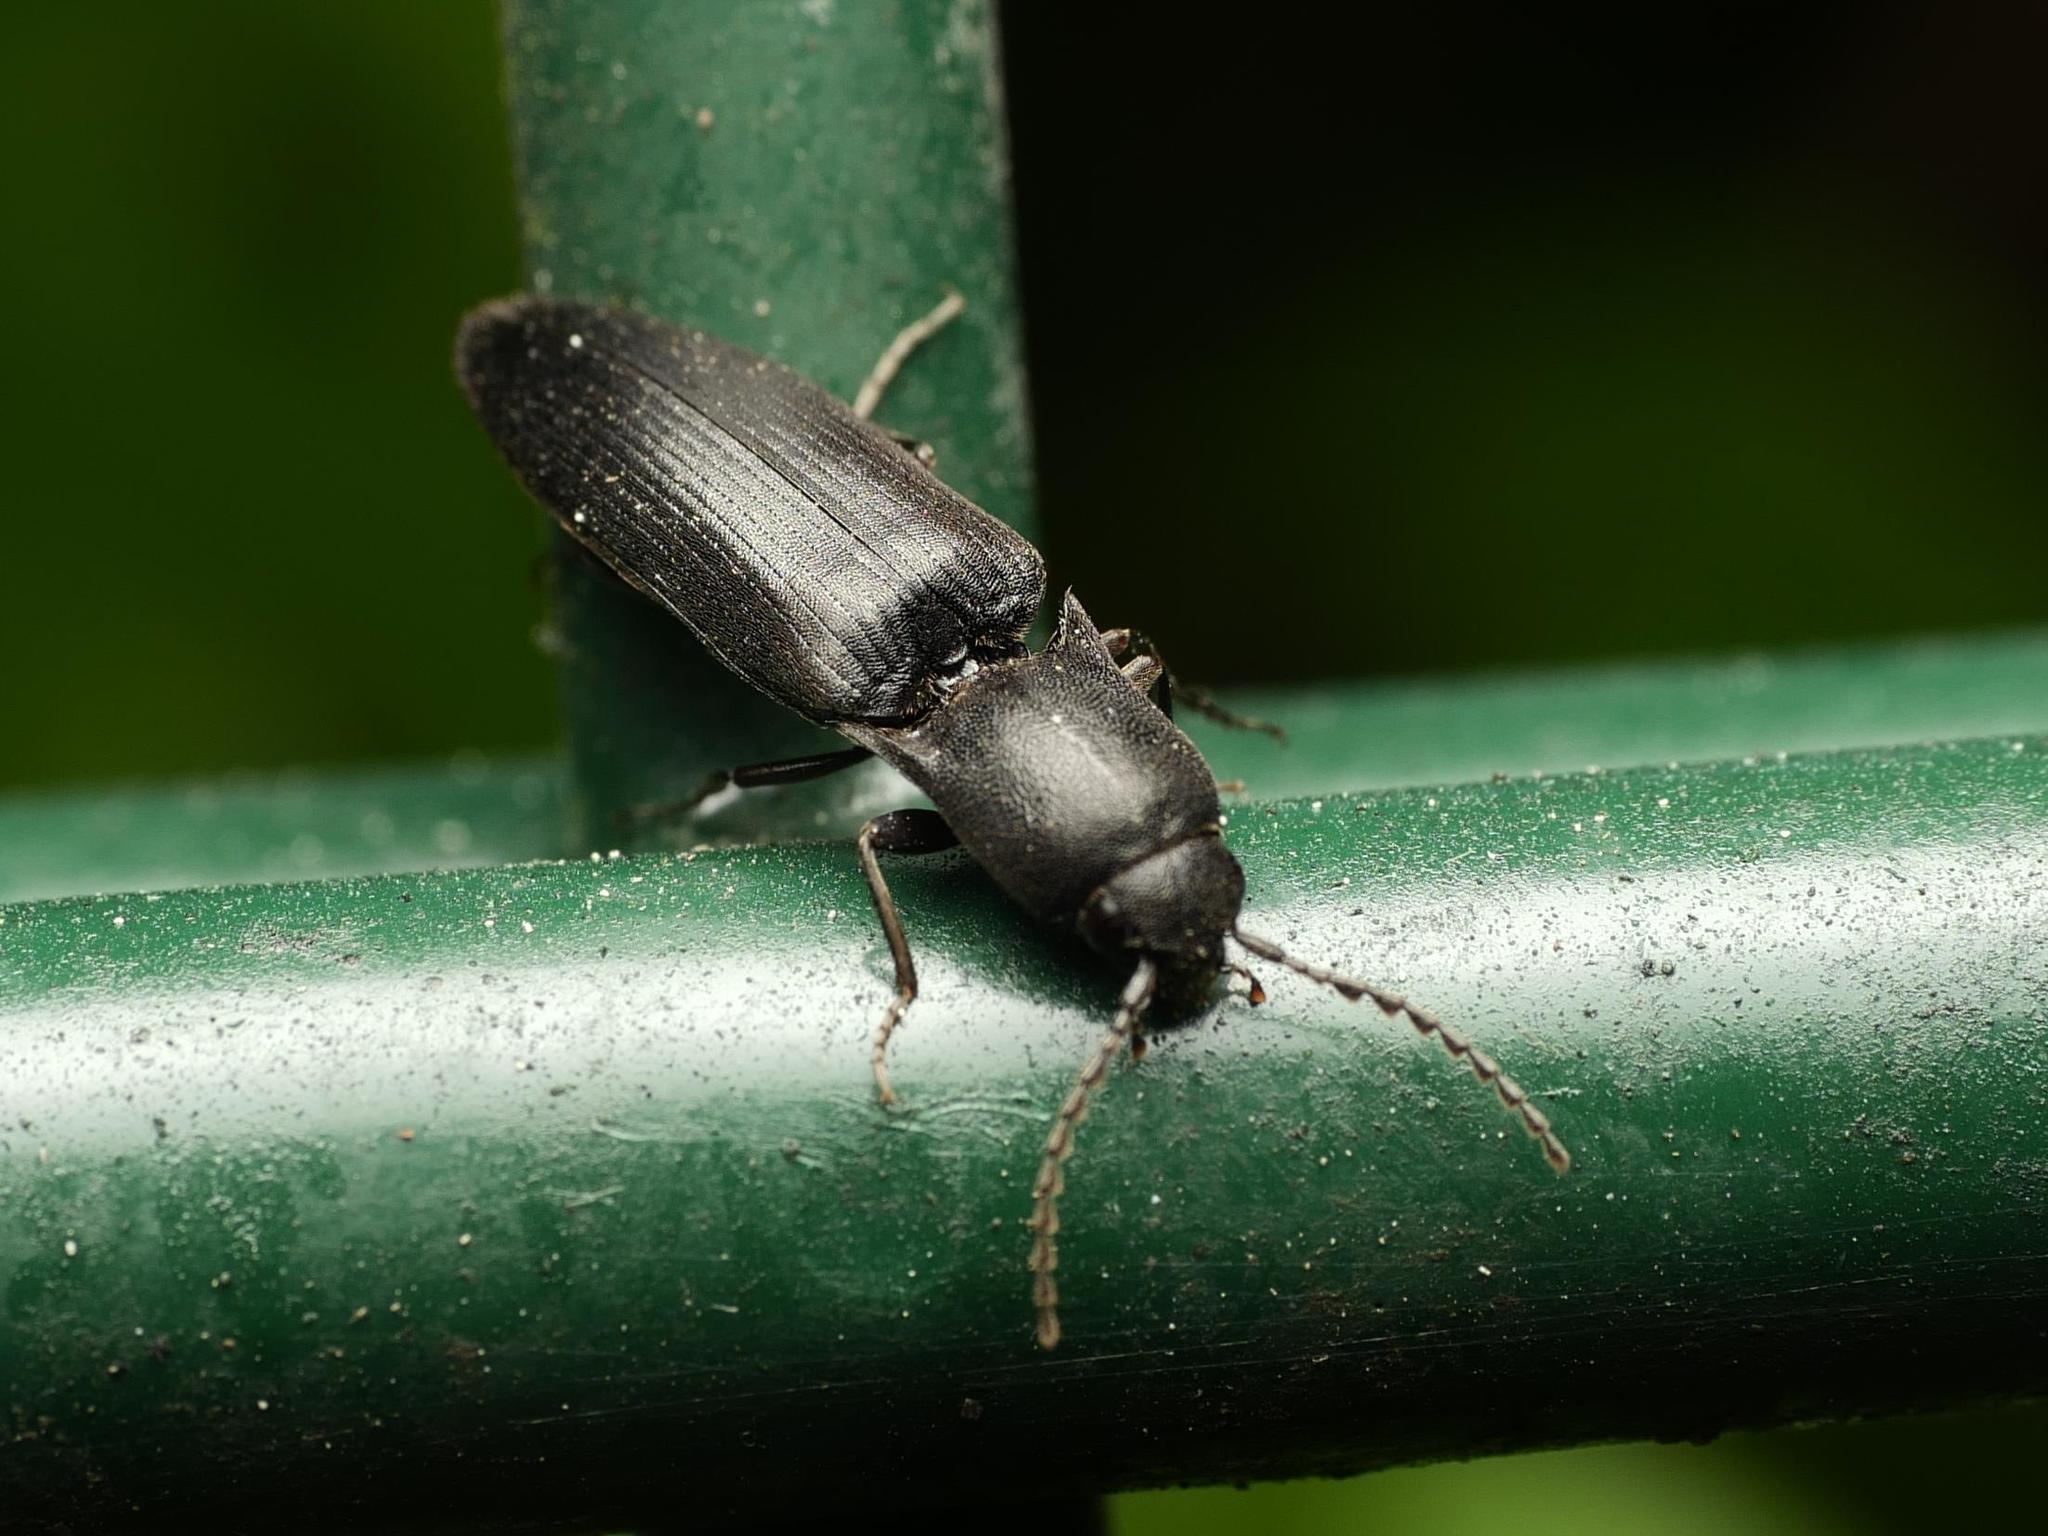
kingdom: Animalia
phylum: Arthropoda
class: Insecta
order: Coleoptera
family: Elateridae
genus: Ectinus
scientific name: Ectinus aterrimus
